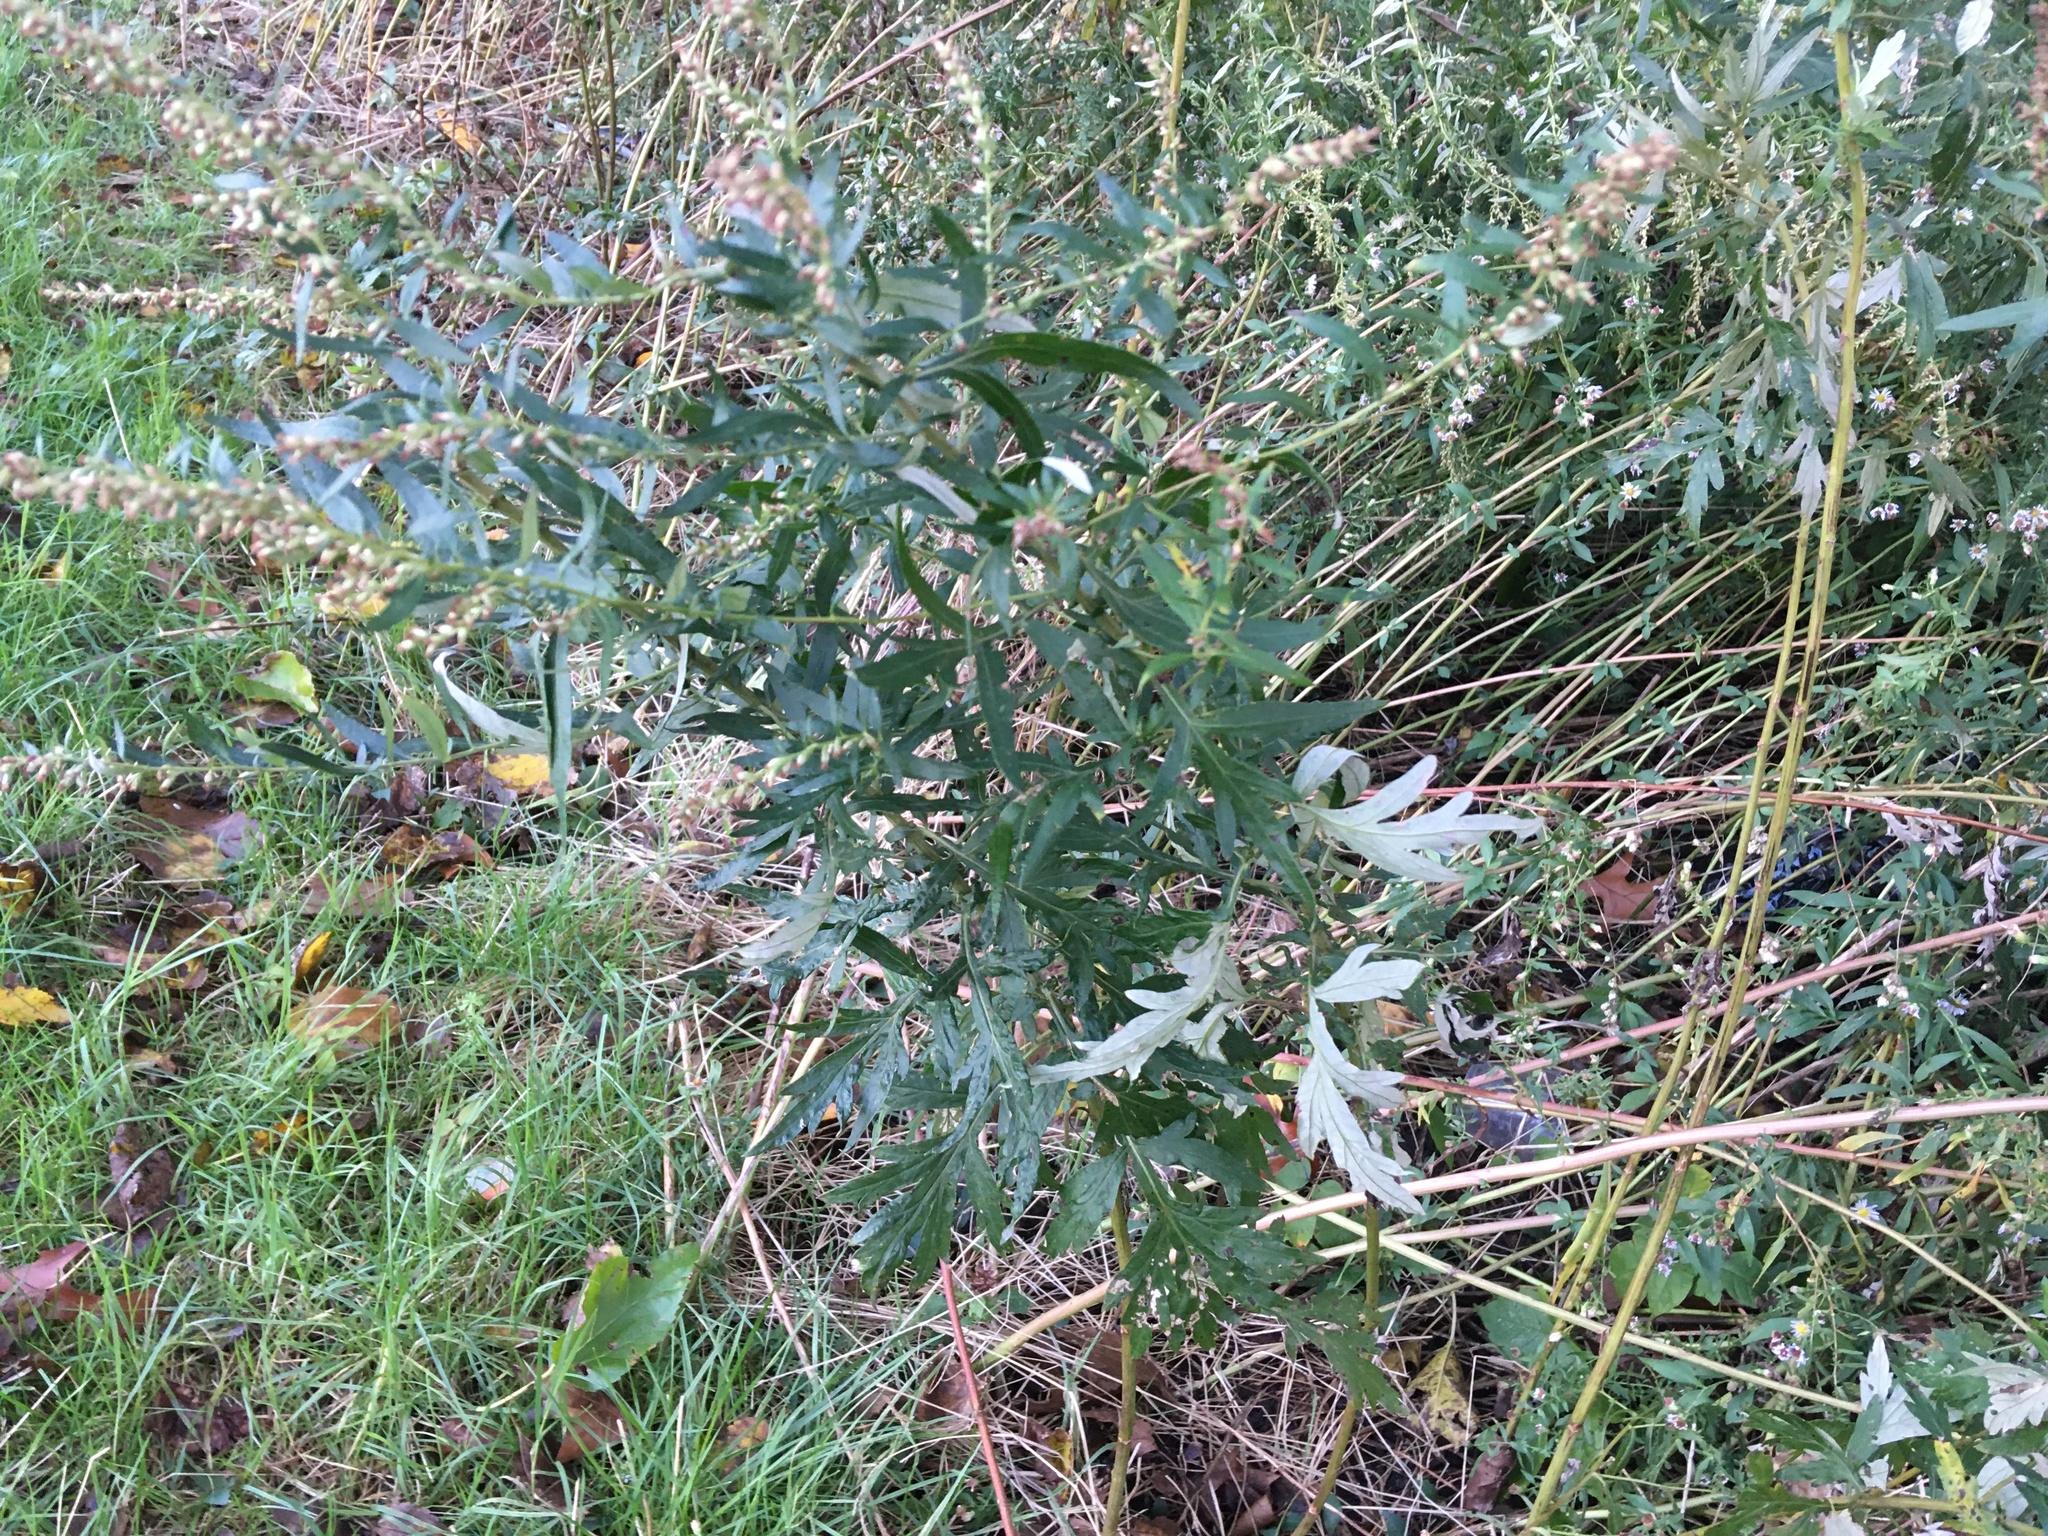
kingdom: Plantae
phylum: Tracheophyta
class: Magnoliopsida
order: Asterales
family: Asteraceae
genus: Artemisia
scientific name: Artemisia vulgaris
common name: Mugwort
